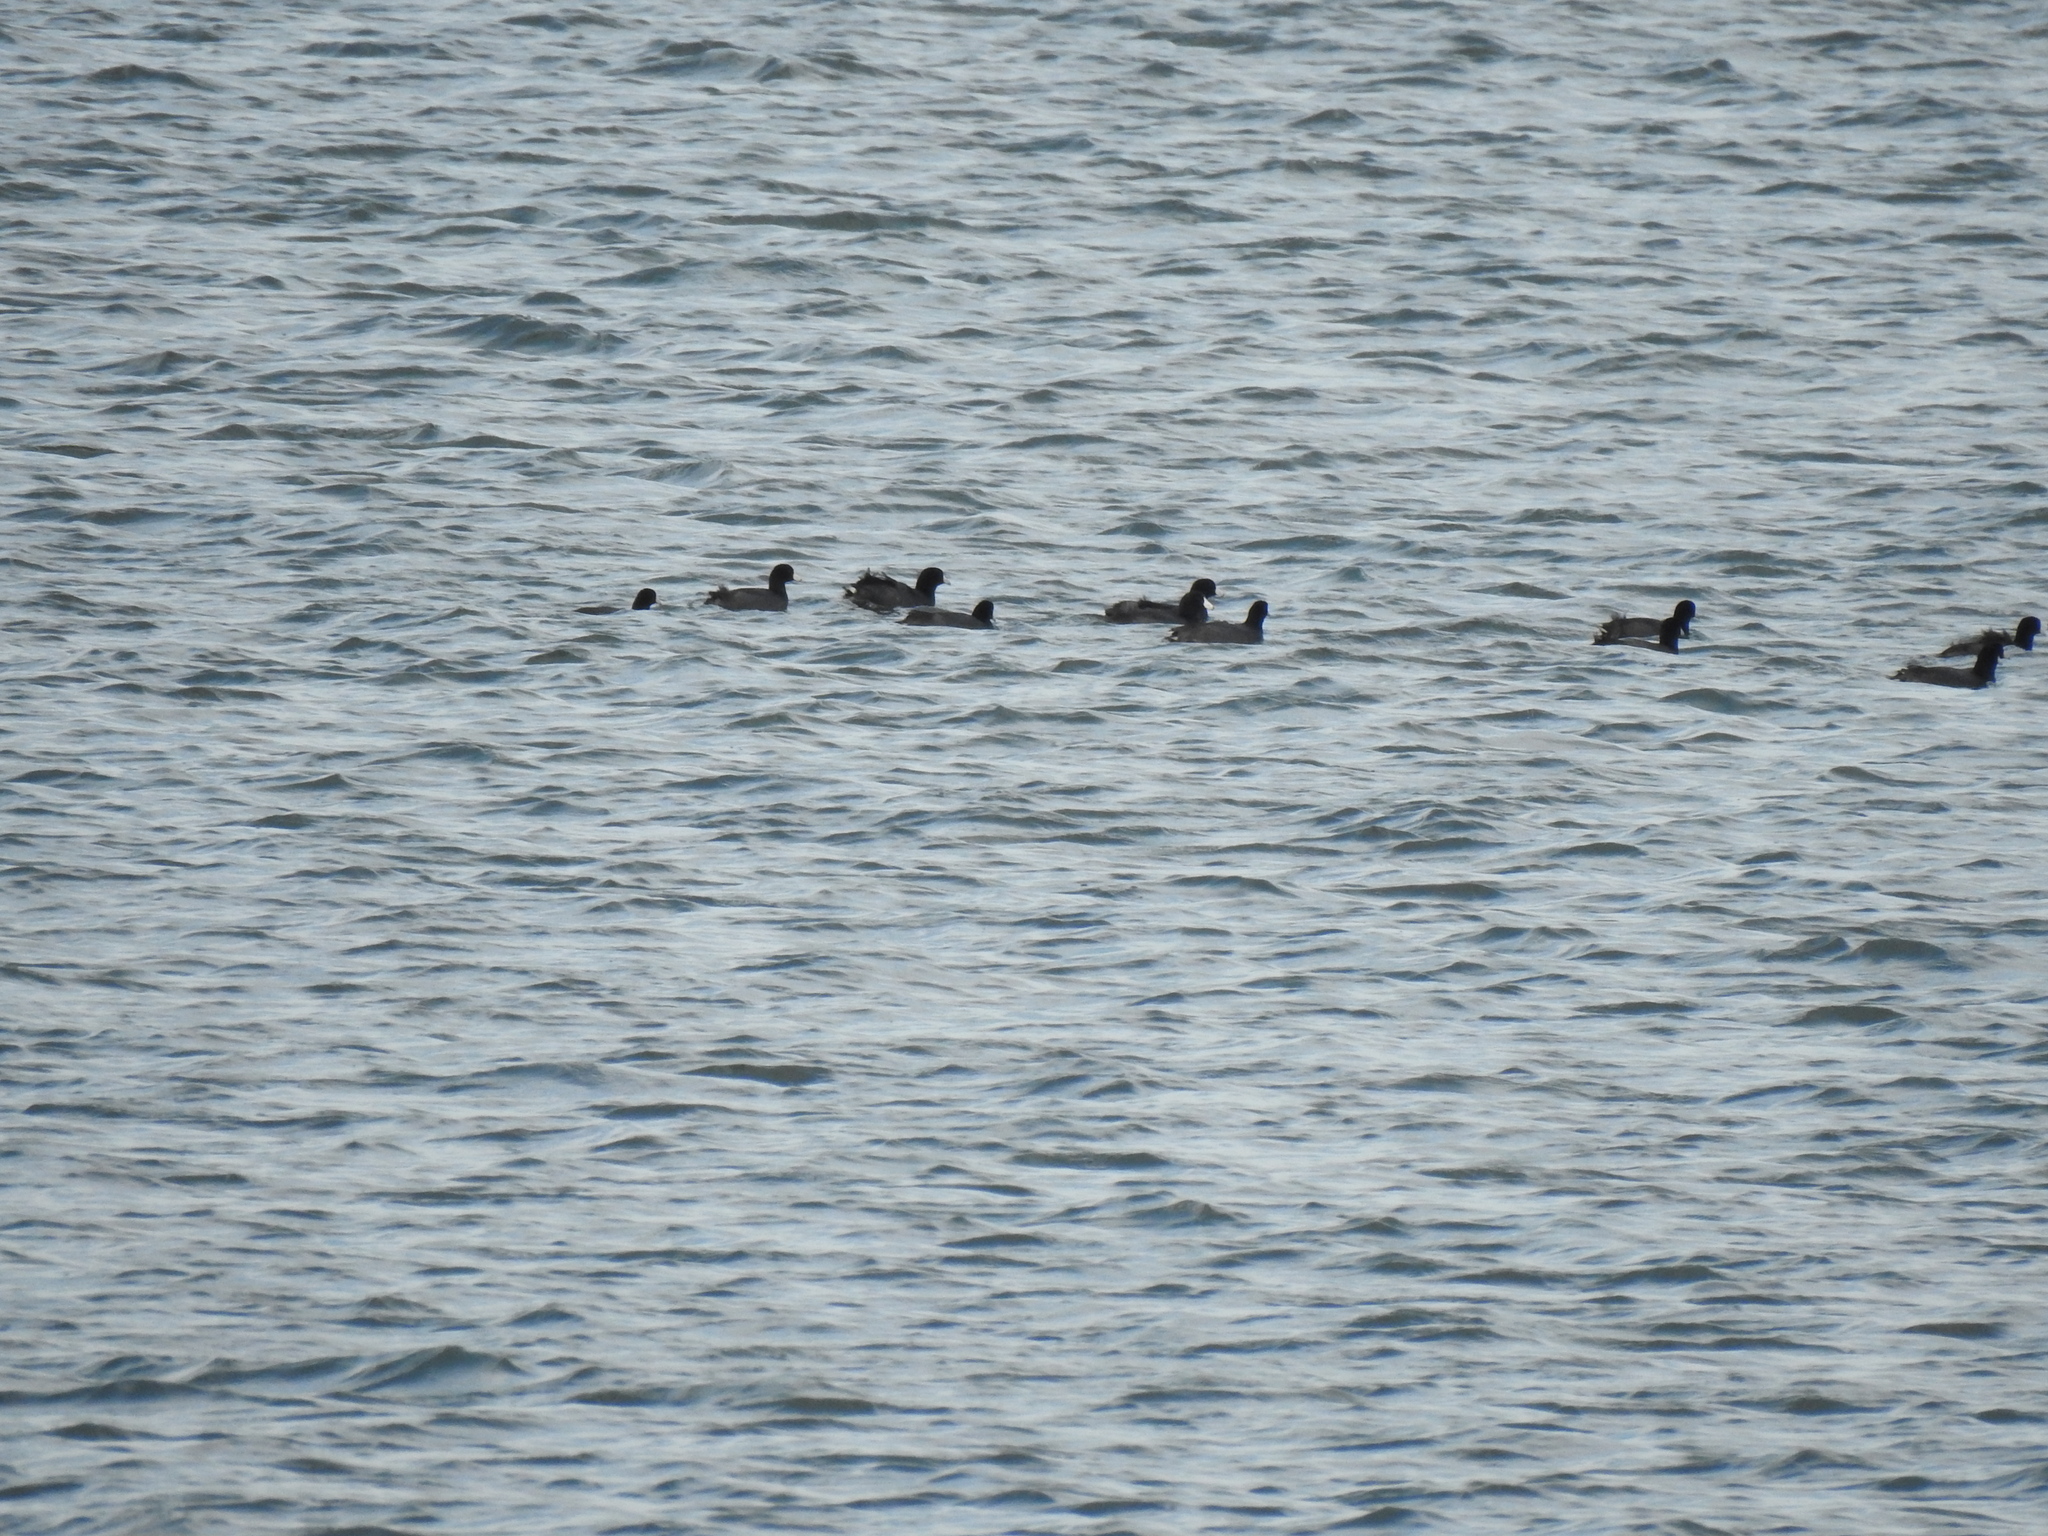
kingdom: Animalia
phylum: Chordata
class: Aves
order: Gruiformes
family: Rallidae
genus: Fulica
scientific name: Fulica americana
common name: American coot
